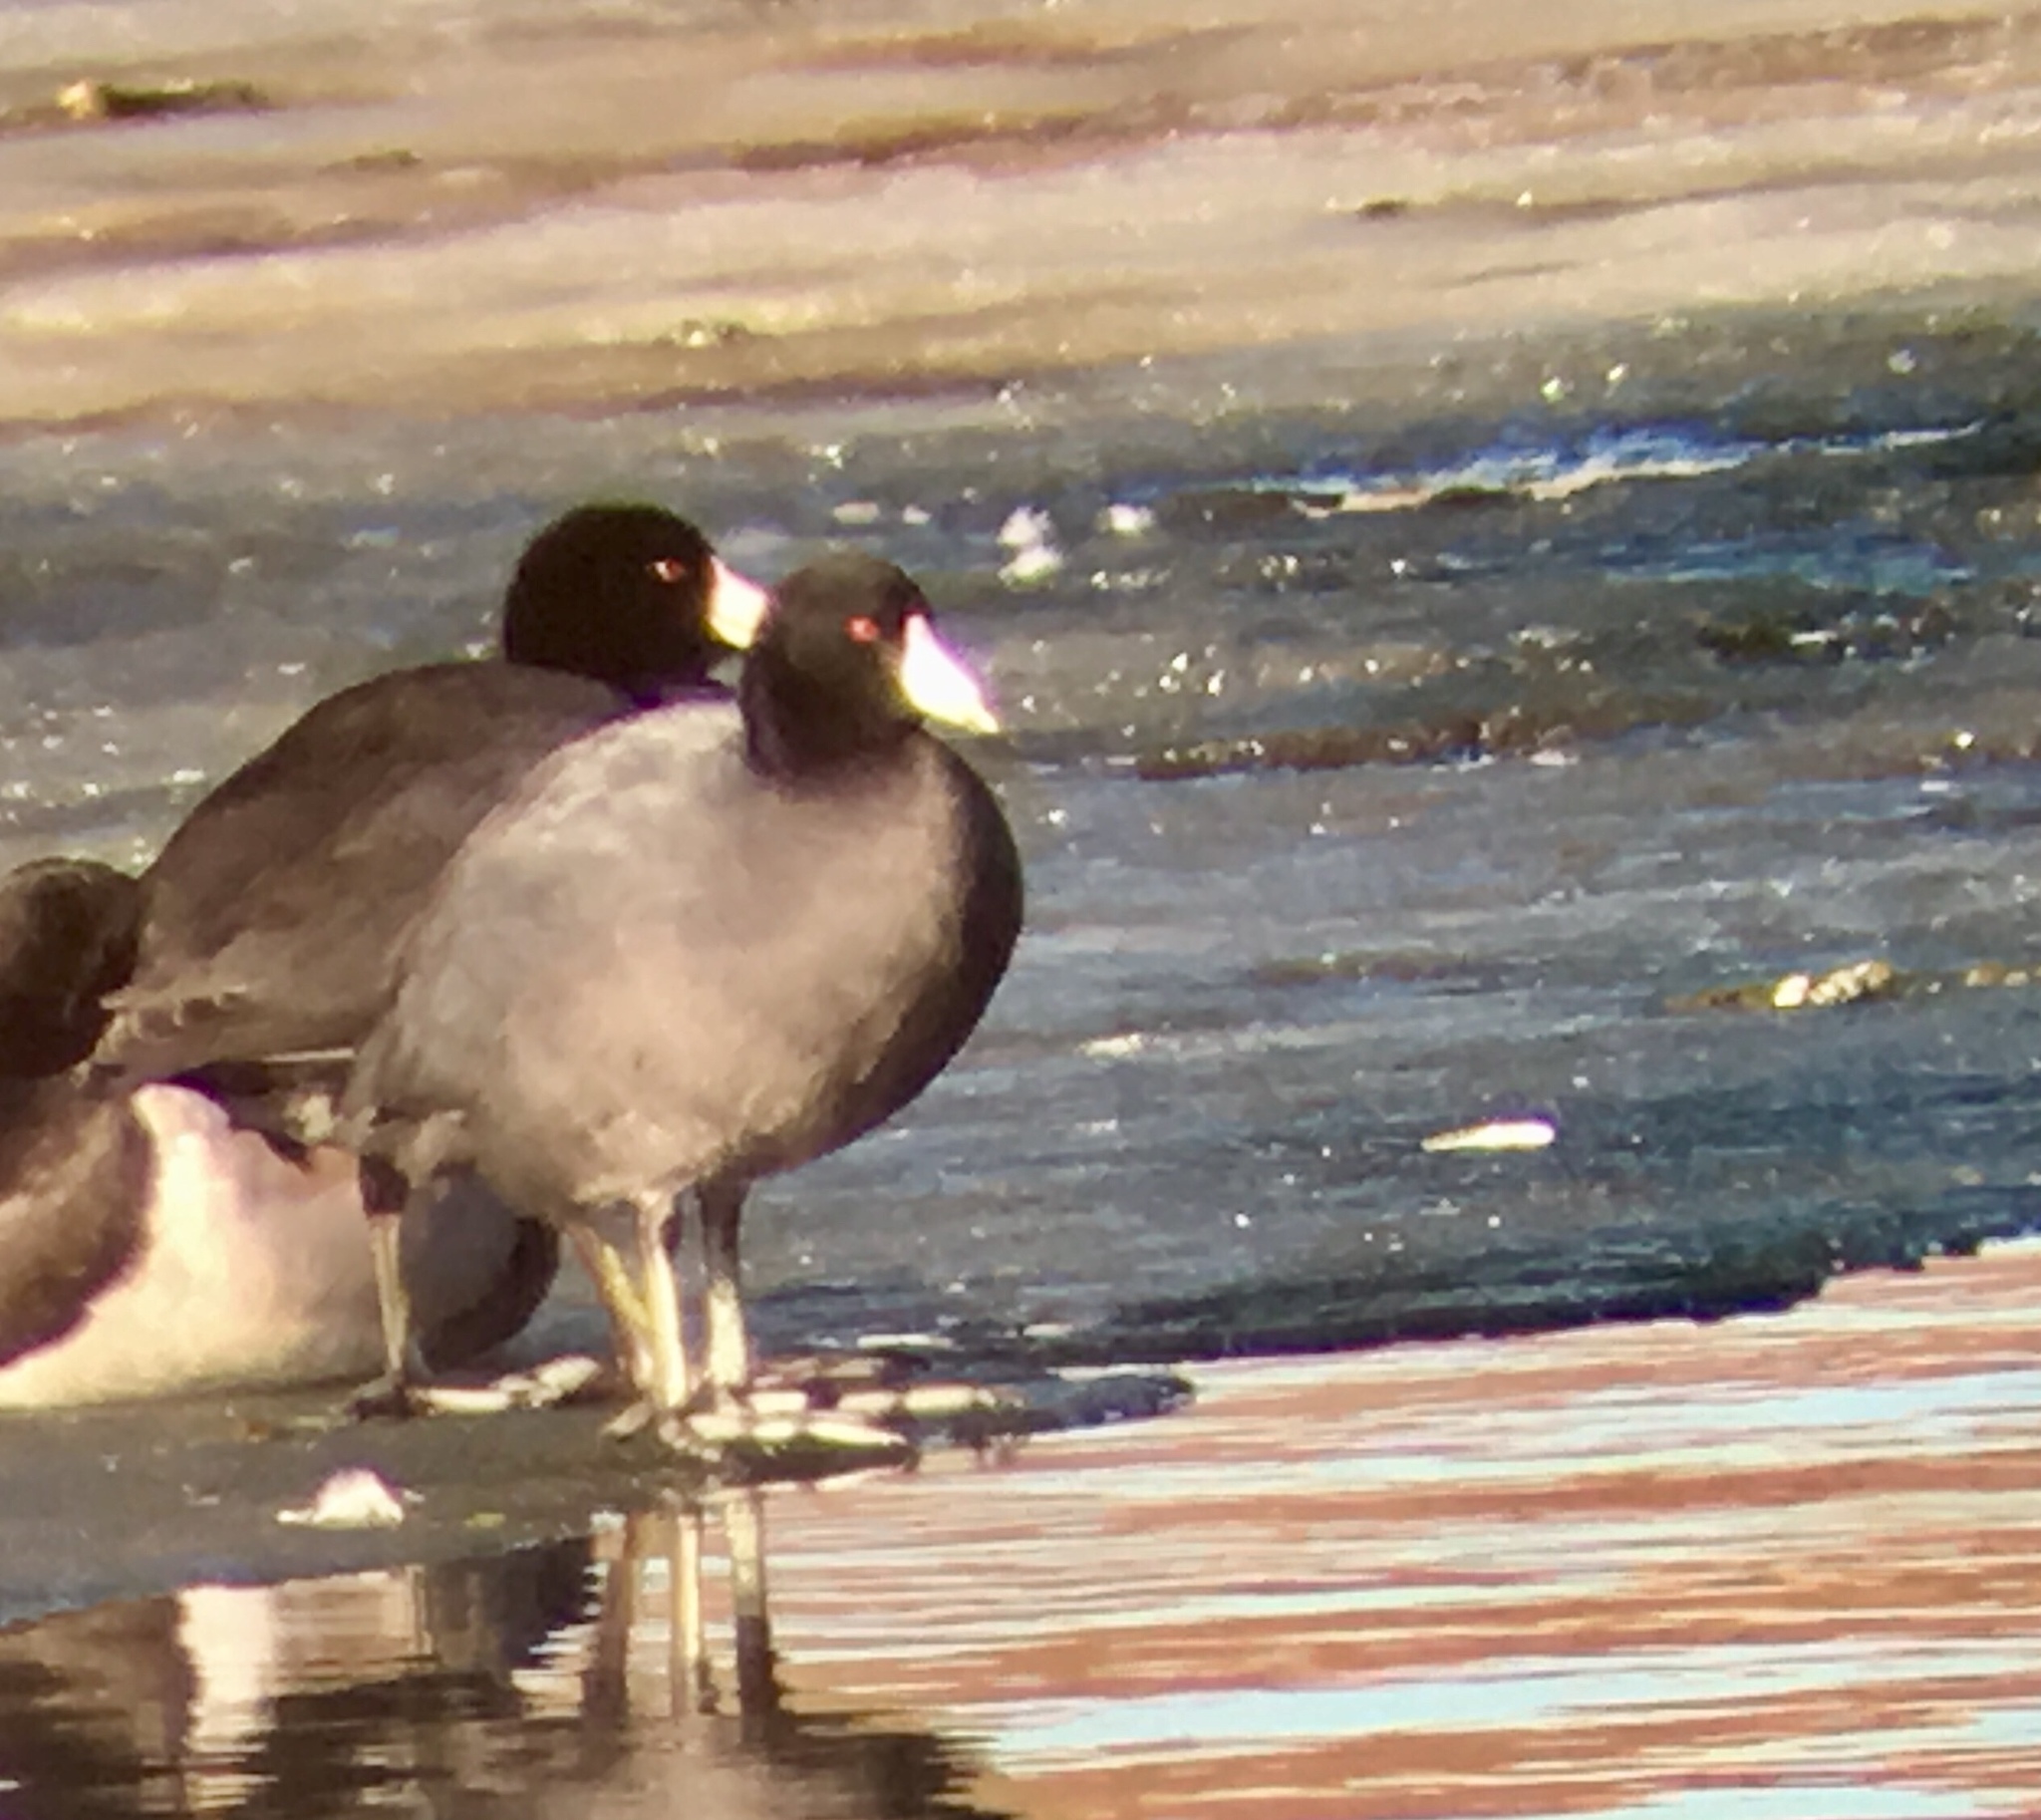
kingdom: Animalia
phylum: Chordata
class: Aves
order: Gruiformes
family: Rallidae
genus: Fulica
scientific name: Fulica americana
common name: American coot
